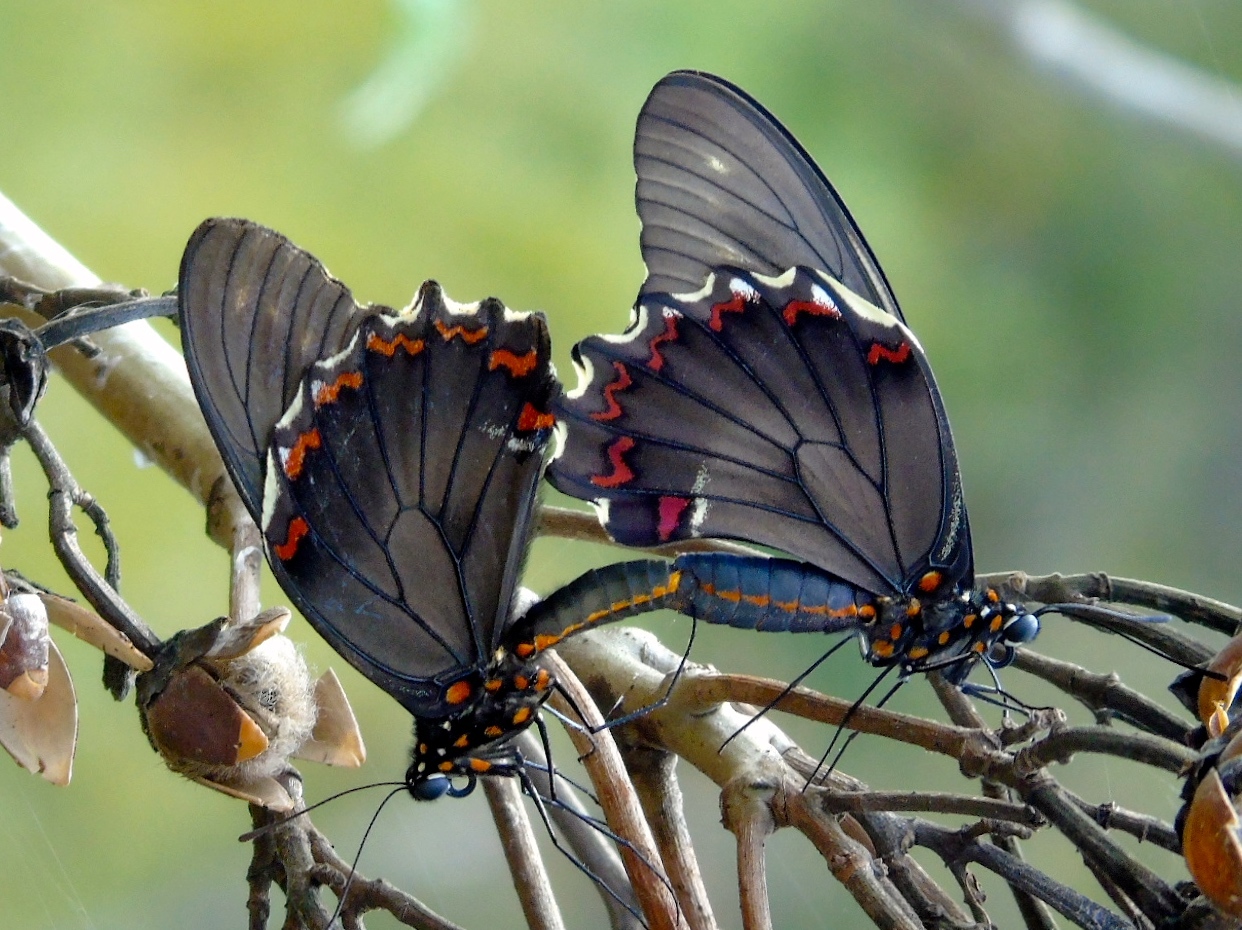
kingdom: Animalia
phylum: Arthropoda
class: Insecta
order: Lepidoptera
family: Papilionidae
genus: Battus
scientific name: Battus polydamas
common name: Polydamas swallowtail
